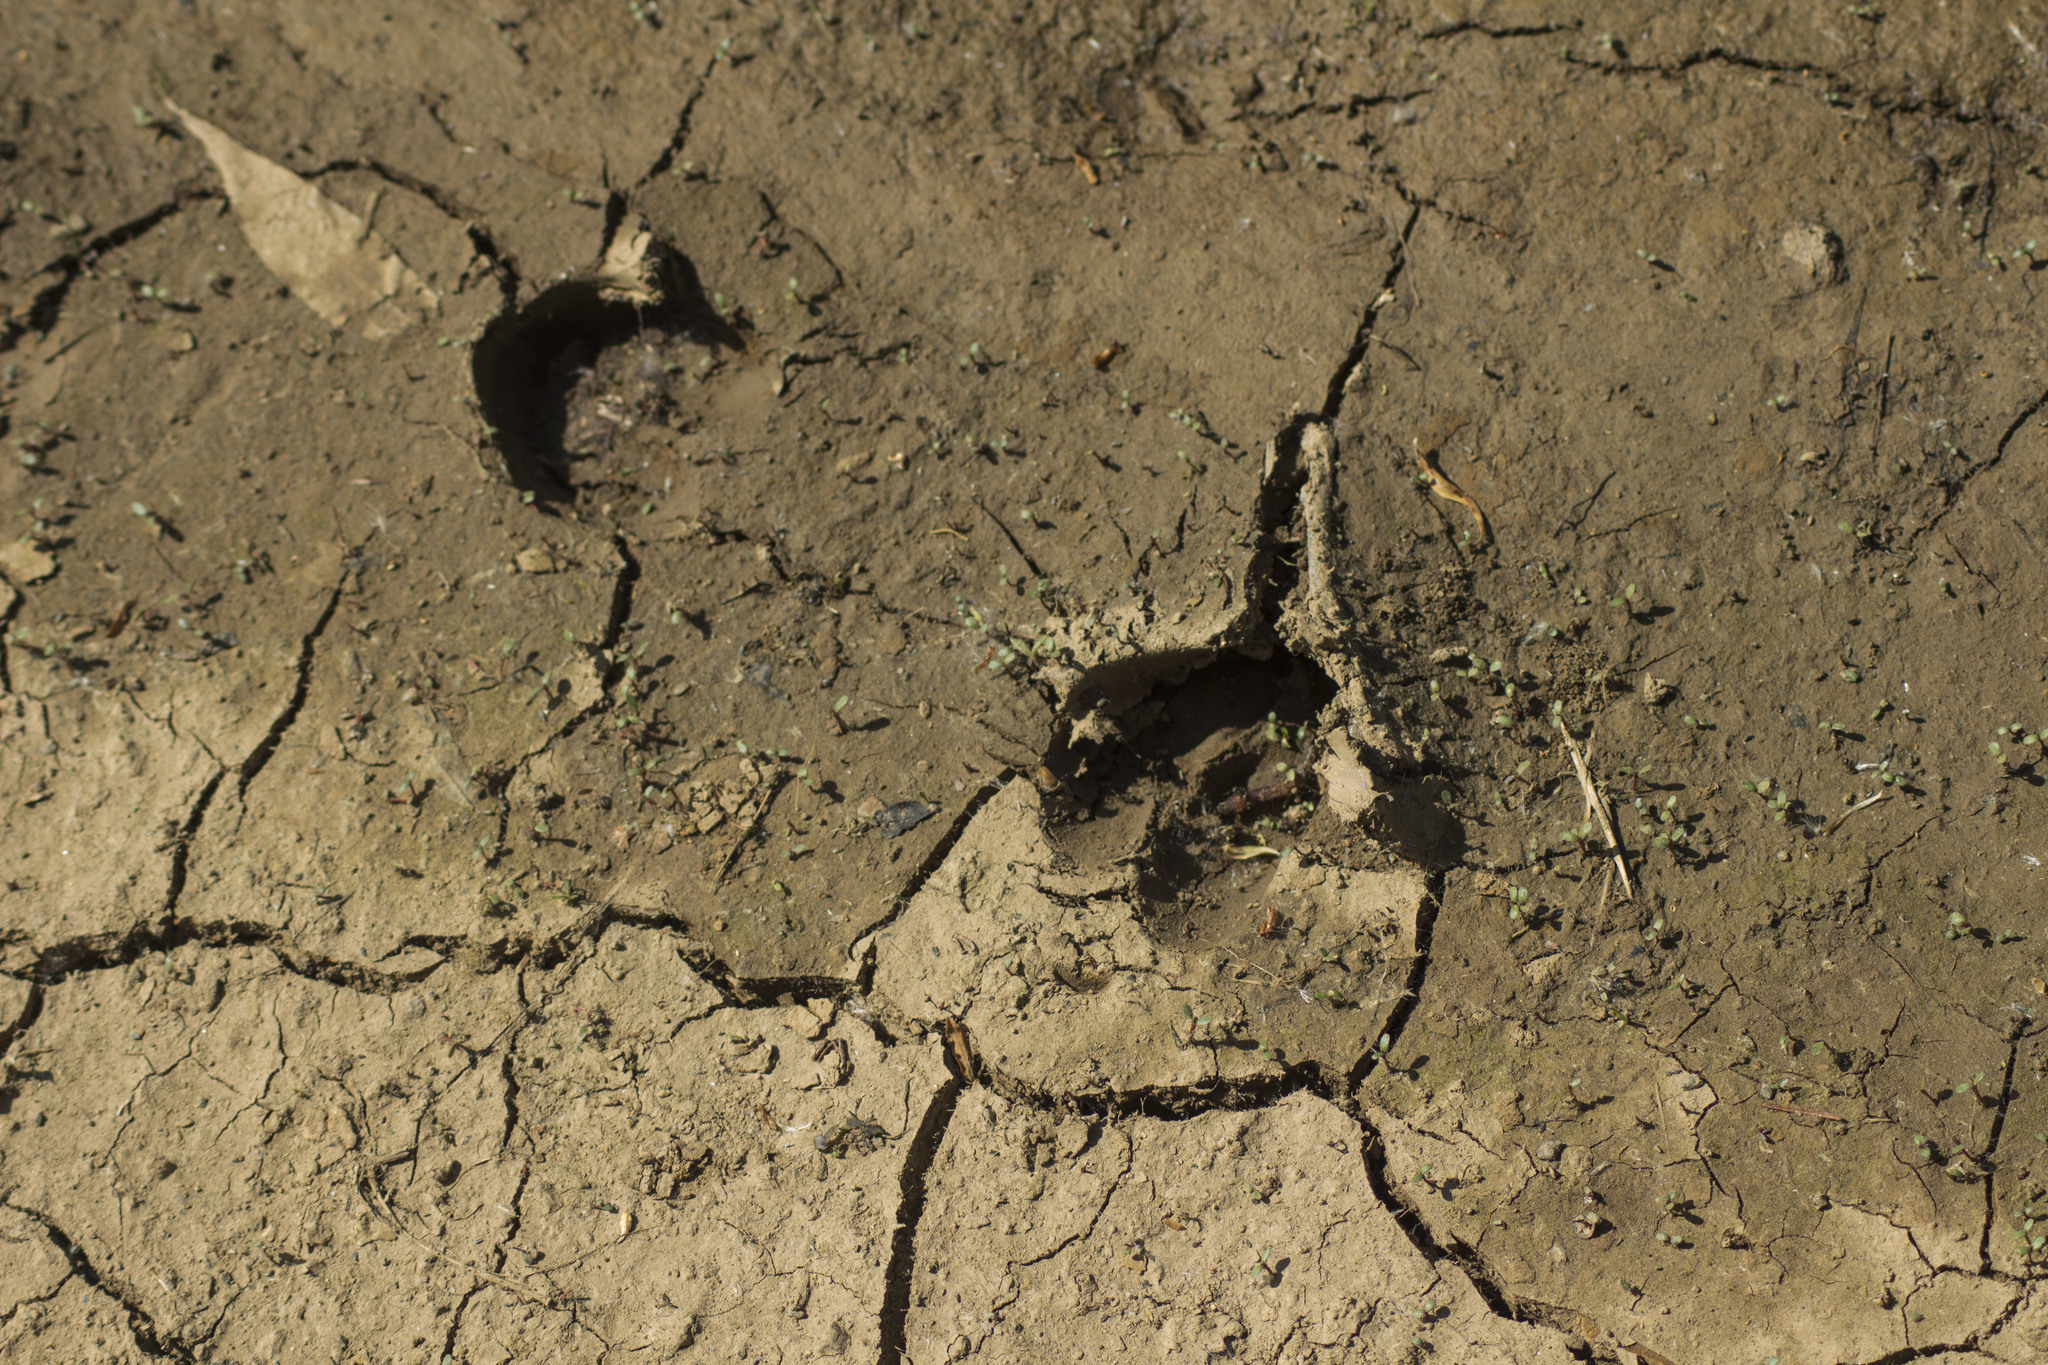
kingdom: Animalia
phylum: Chordata
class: Mammalia
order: Artiodactyla
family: Cervidae
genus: Capreolus
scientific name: Capreolus pygargus
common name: Siberian roe
